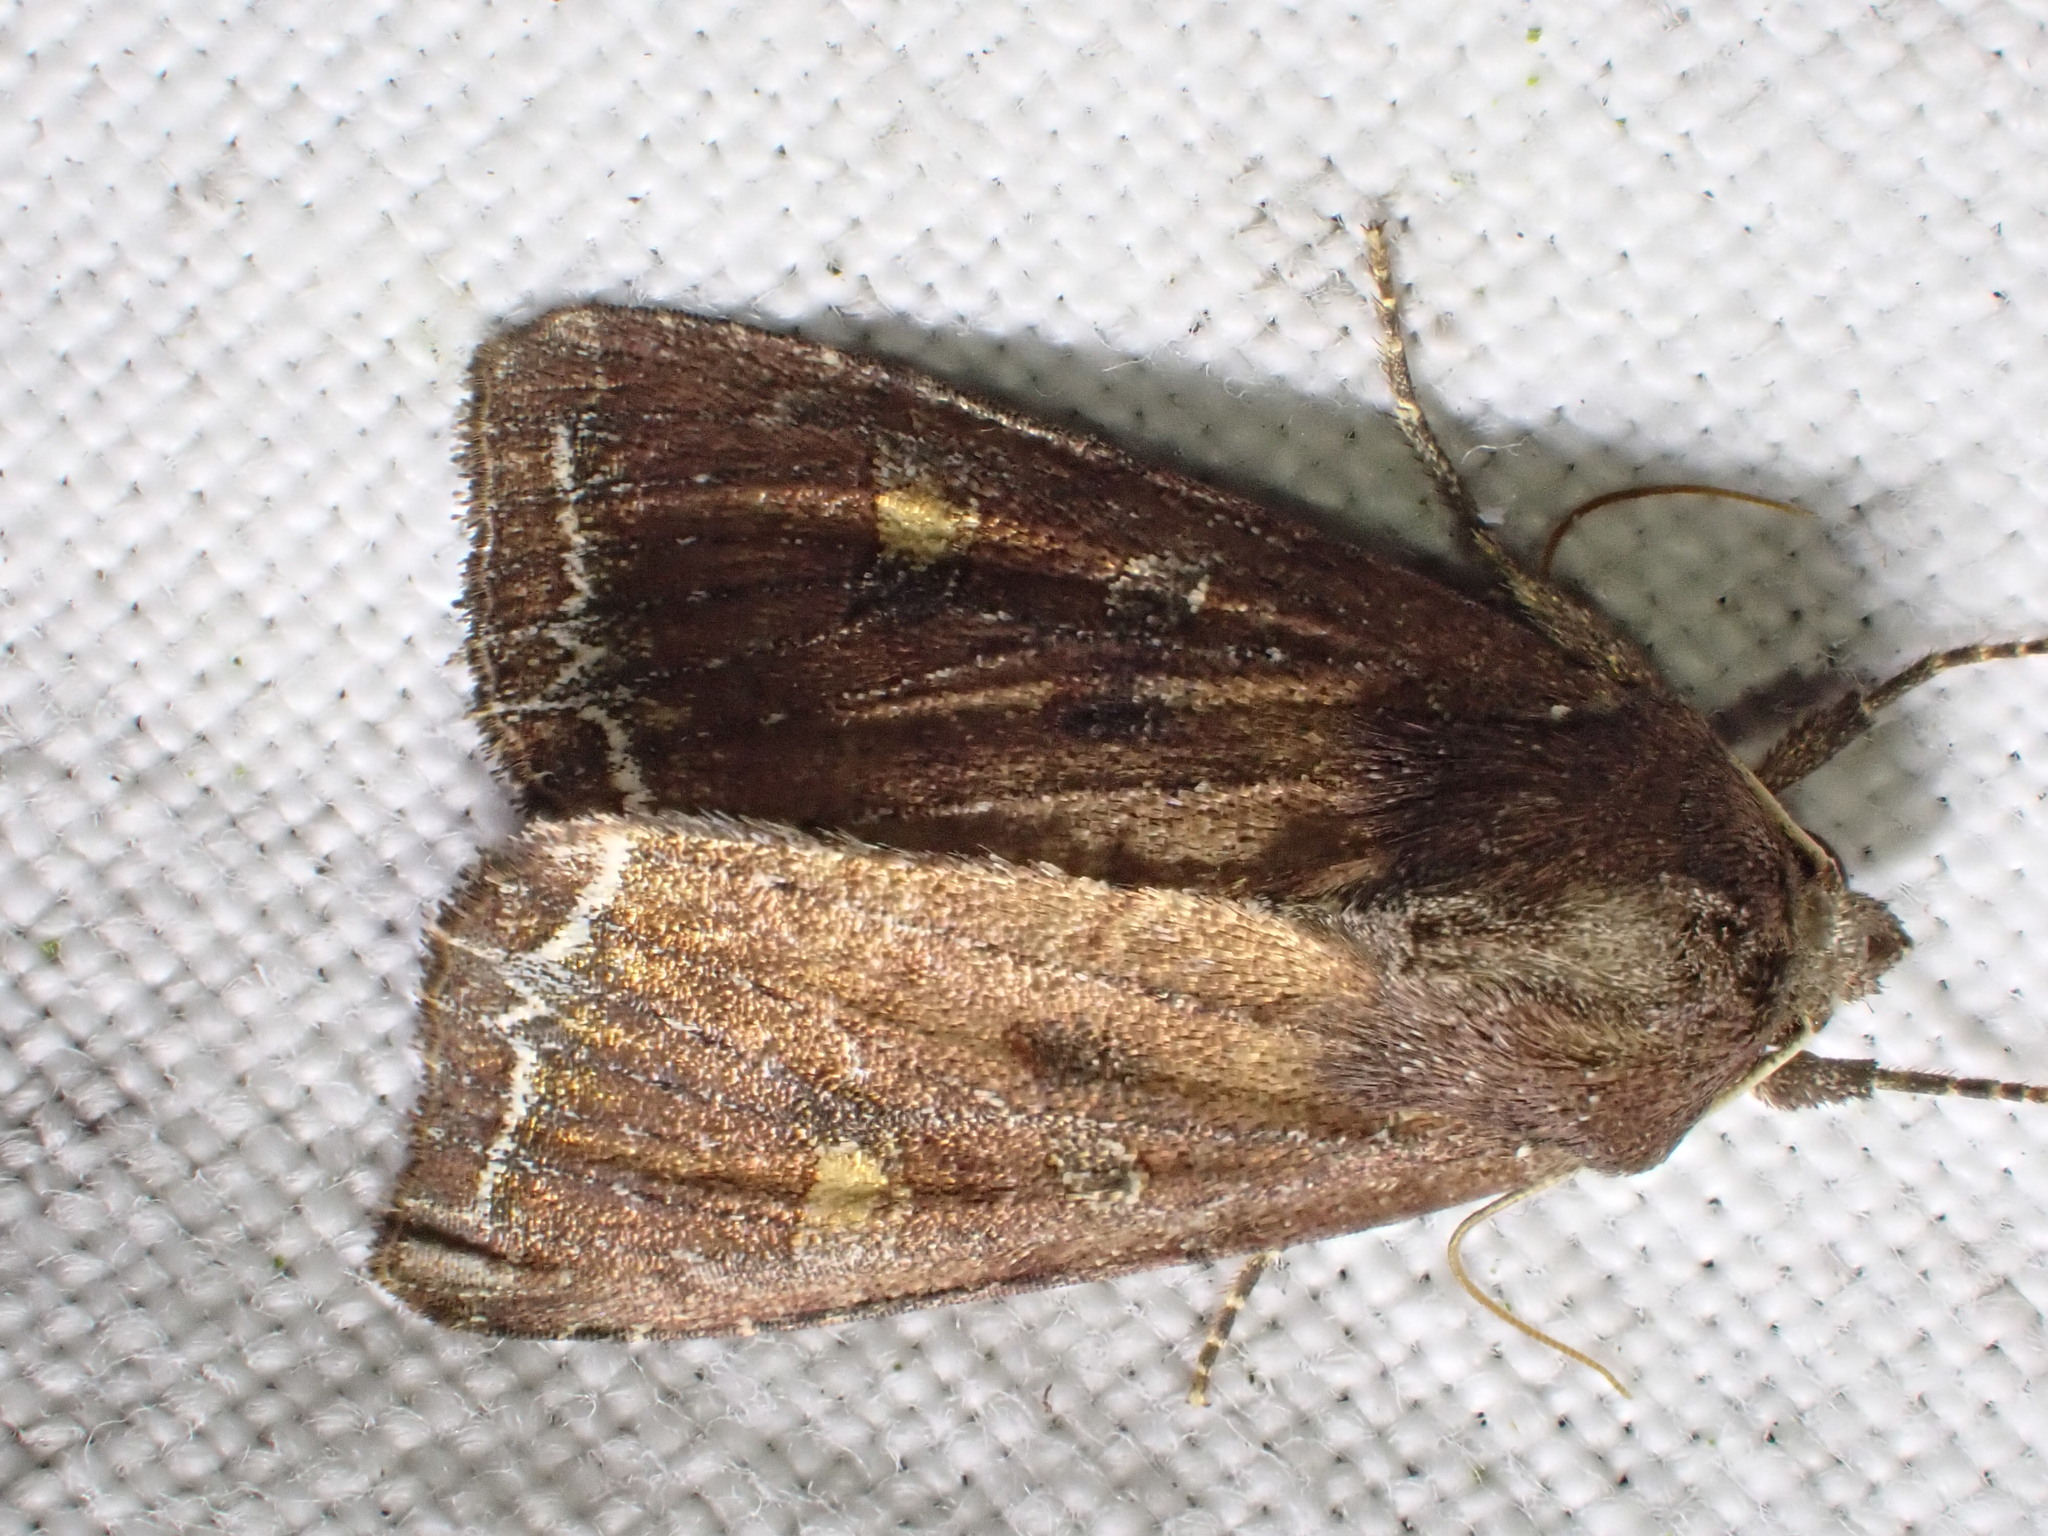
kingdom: Animalia
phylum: Arthropoda
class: Insecta
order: Lepidoptera
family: Noctuidae
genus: Lacanobia
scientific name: Lacanobia oleracea
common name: Bright-line brown-eye
